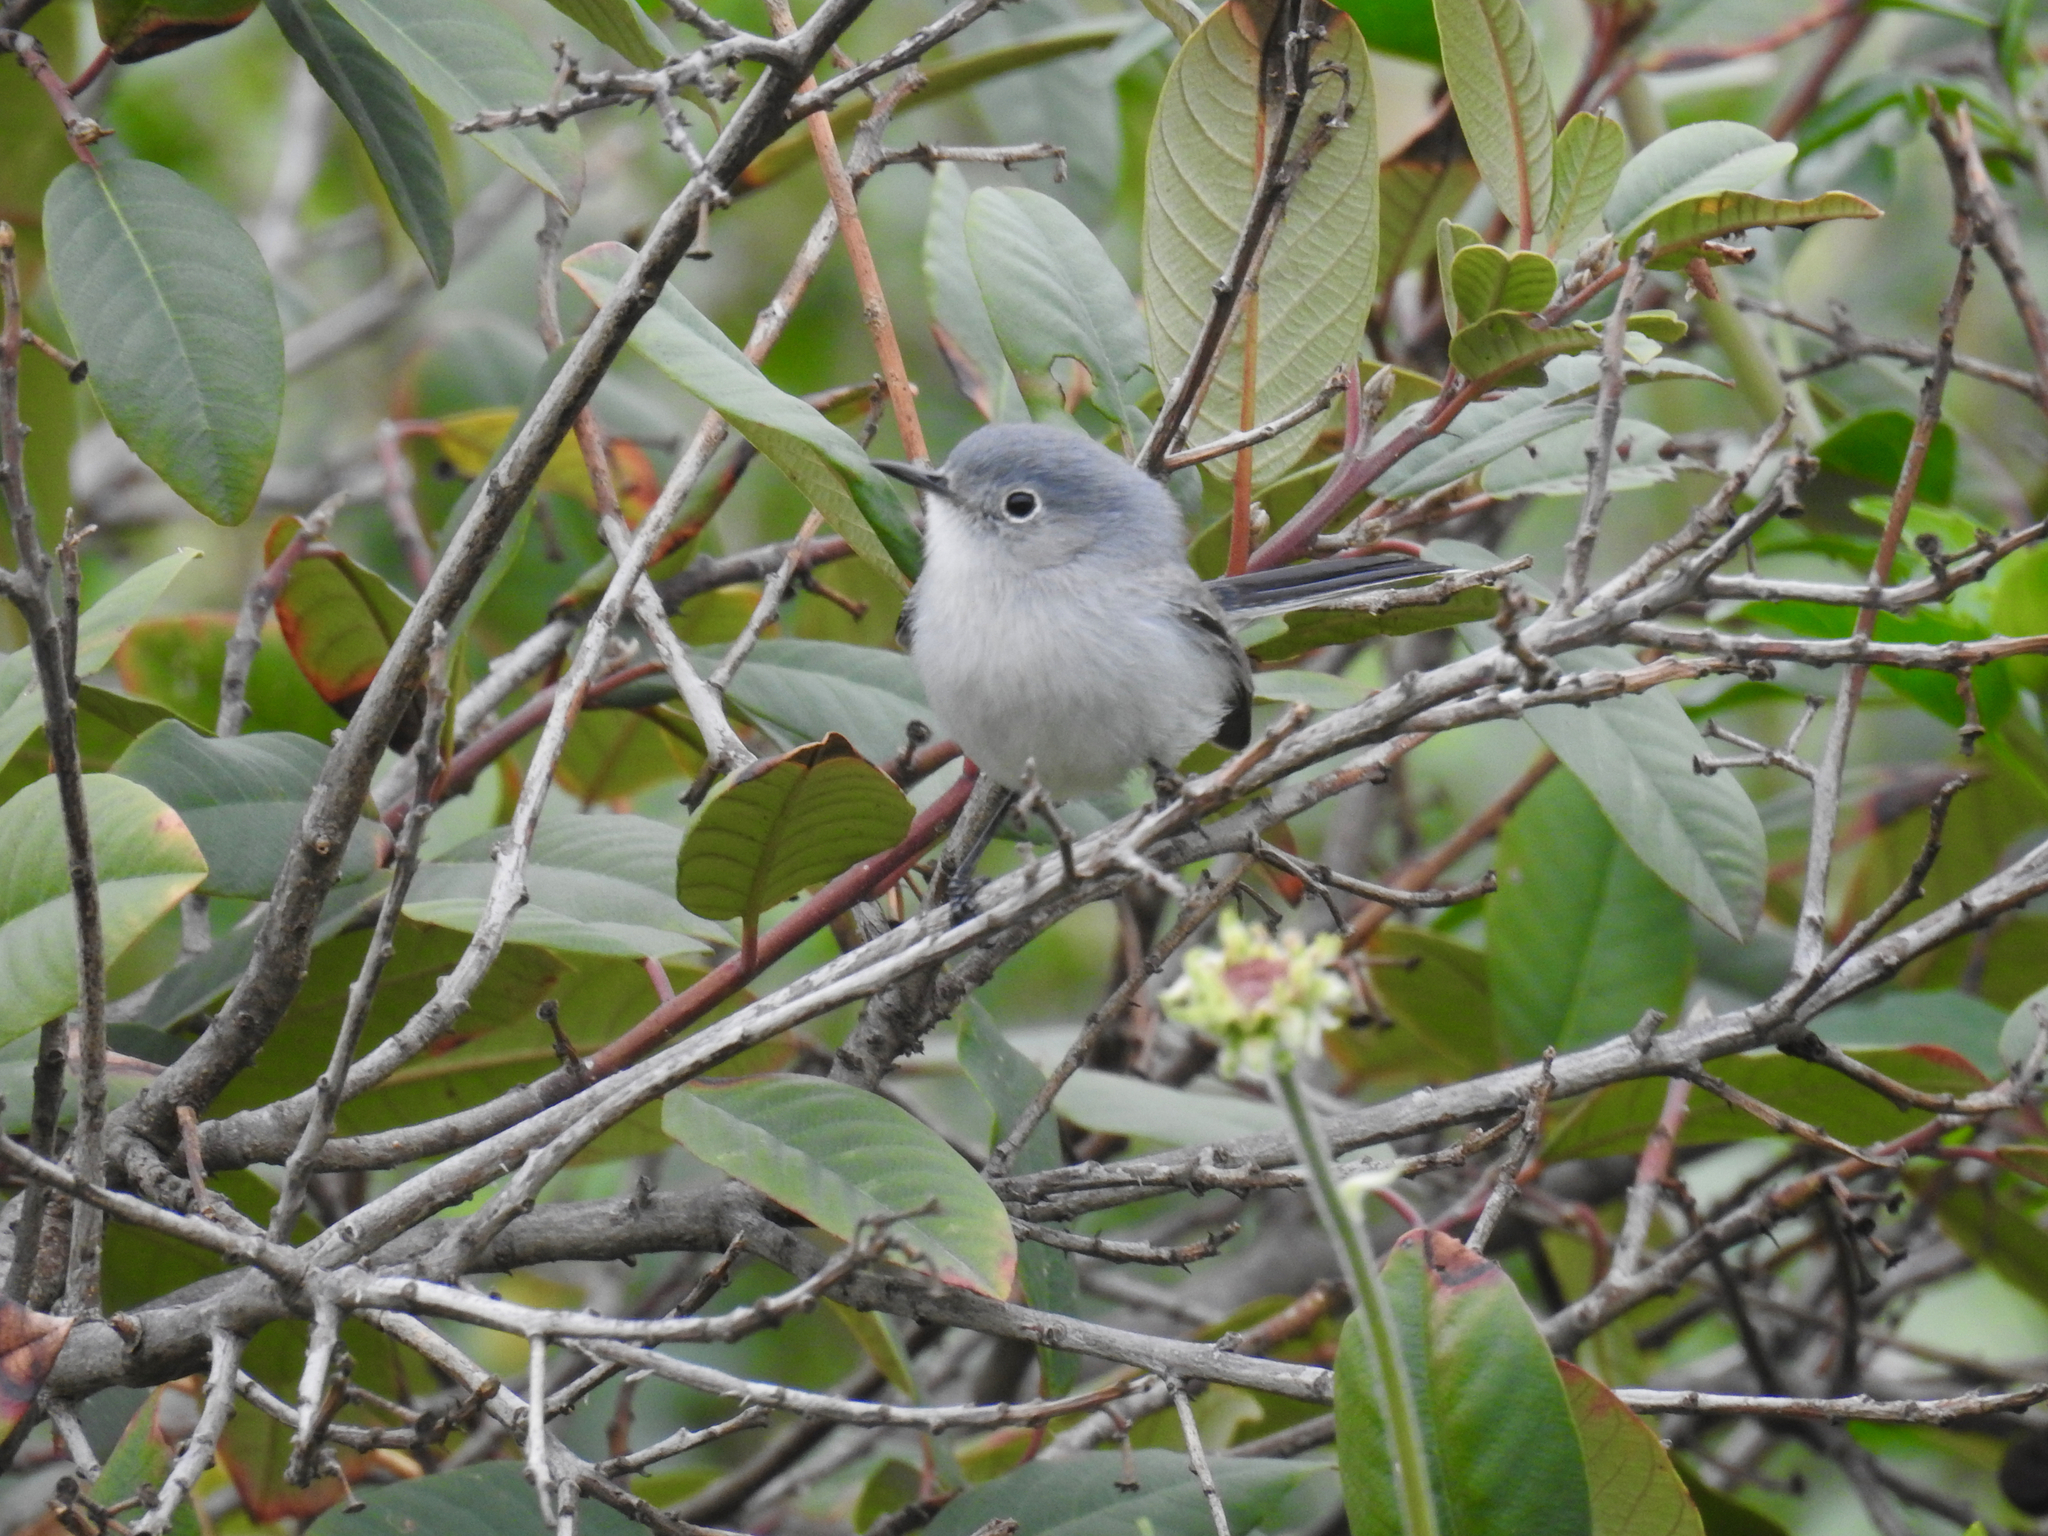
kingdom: Animalia
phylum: Chordata
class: Aves
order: Passeriformes
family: Polioptilidae
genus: Polioptila
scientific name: Polioptila caerulea
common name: Blue-gray gnatcatcher
